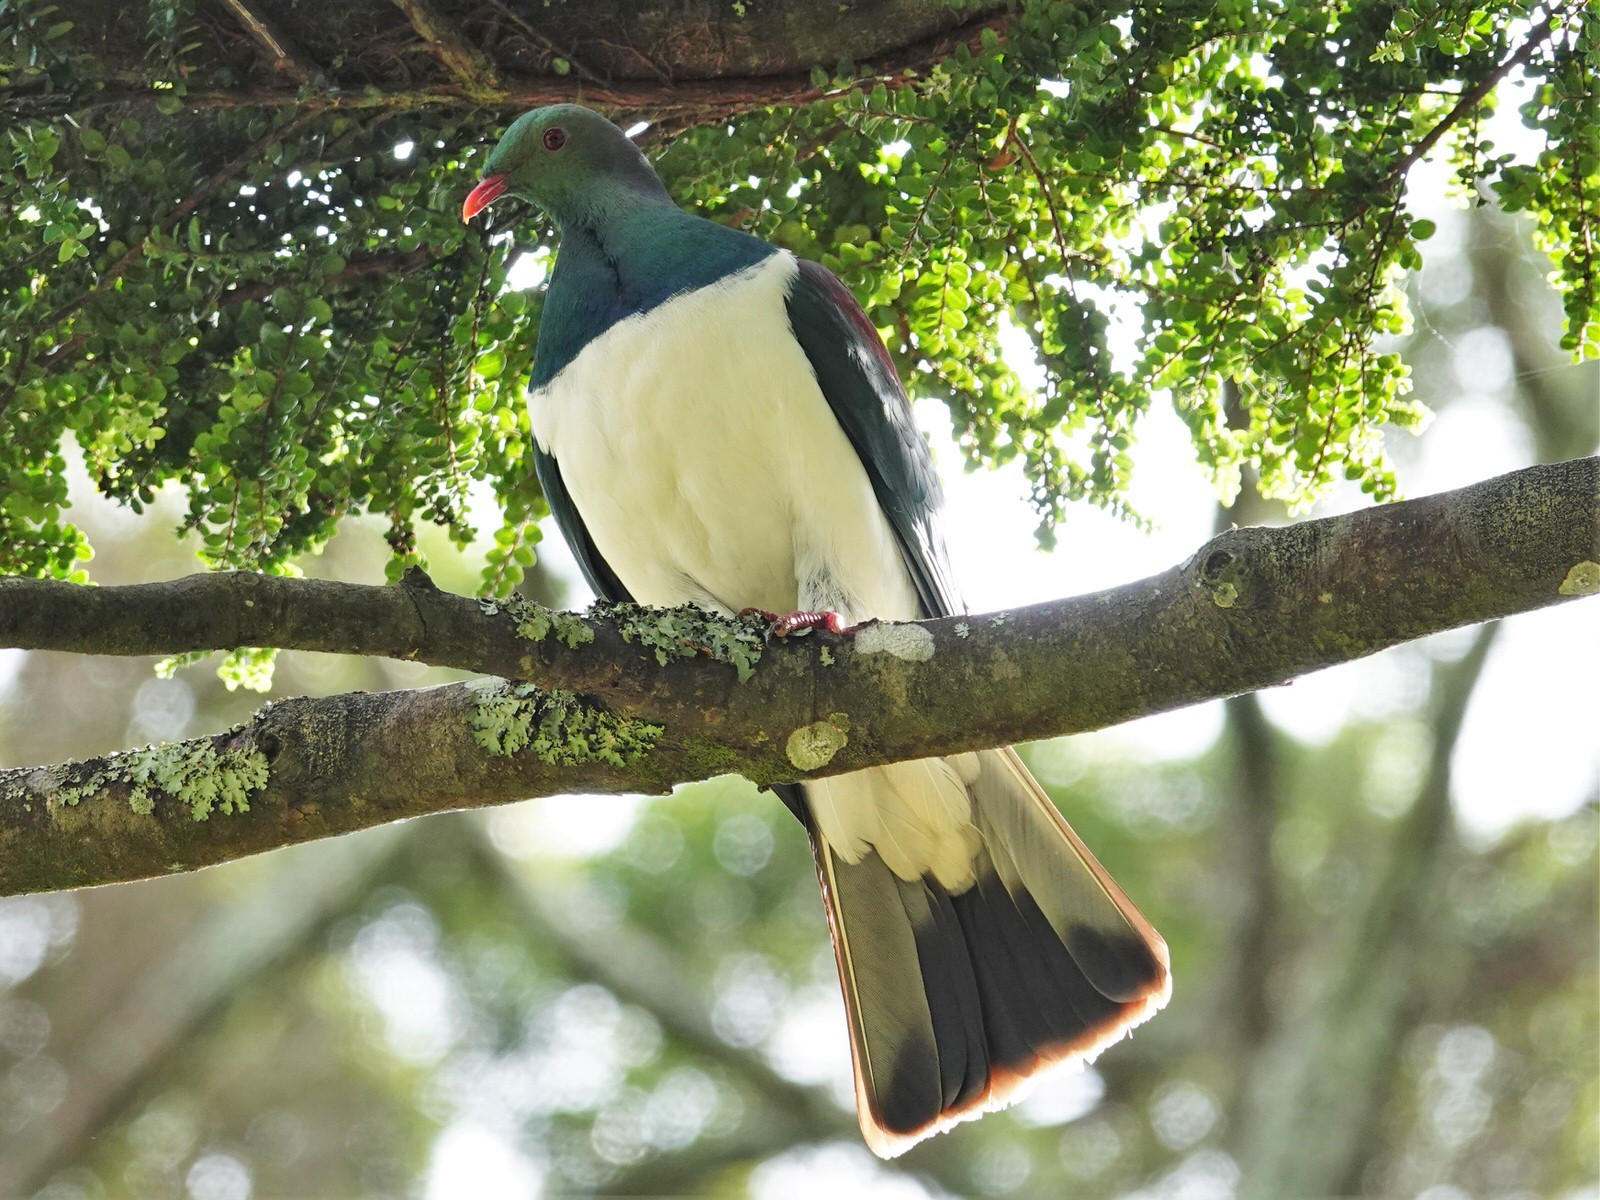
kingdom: Animalia
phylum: Chordata
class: Aves
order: Columbiformes
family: Columbidae
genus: Hemiphaga
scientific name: Hemiphaga novaeseelandiae
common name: New zealand pigeon
